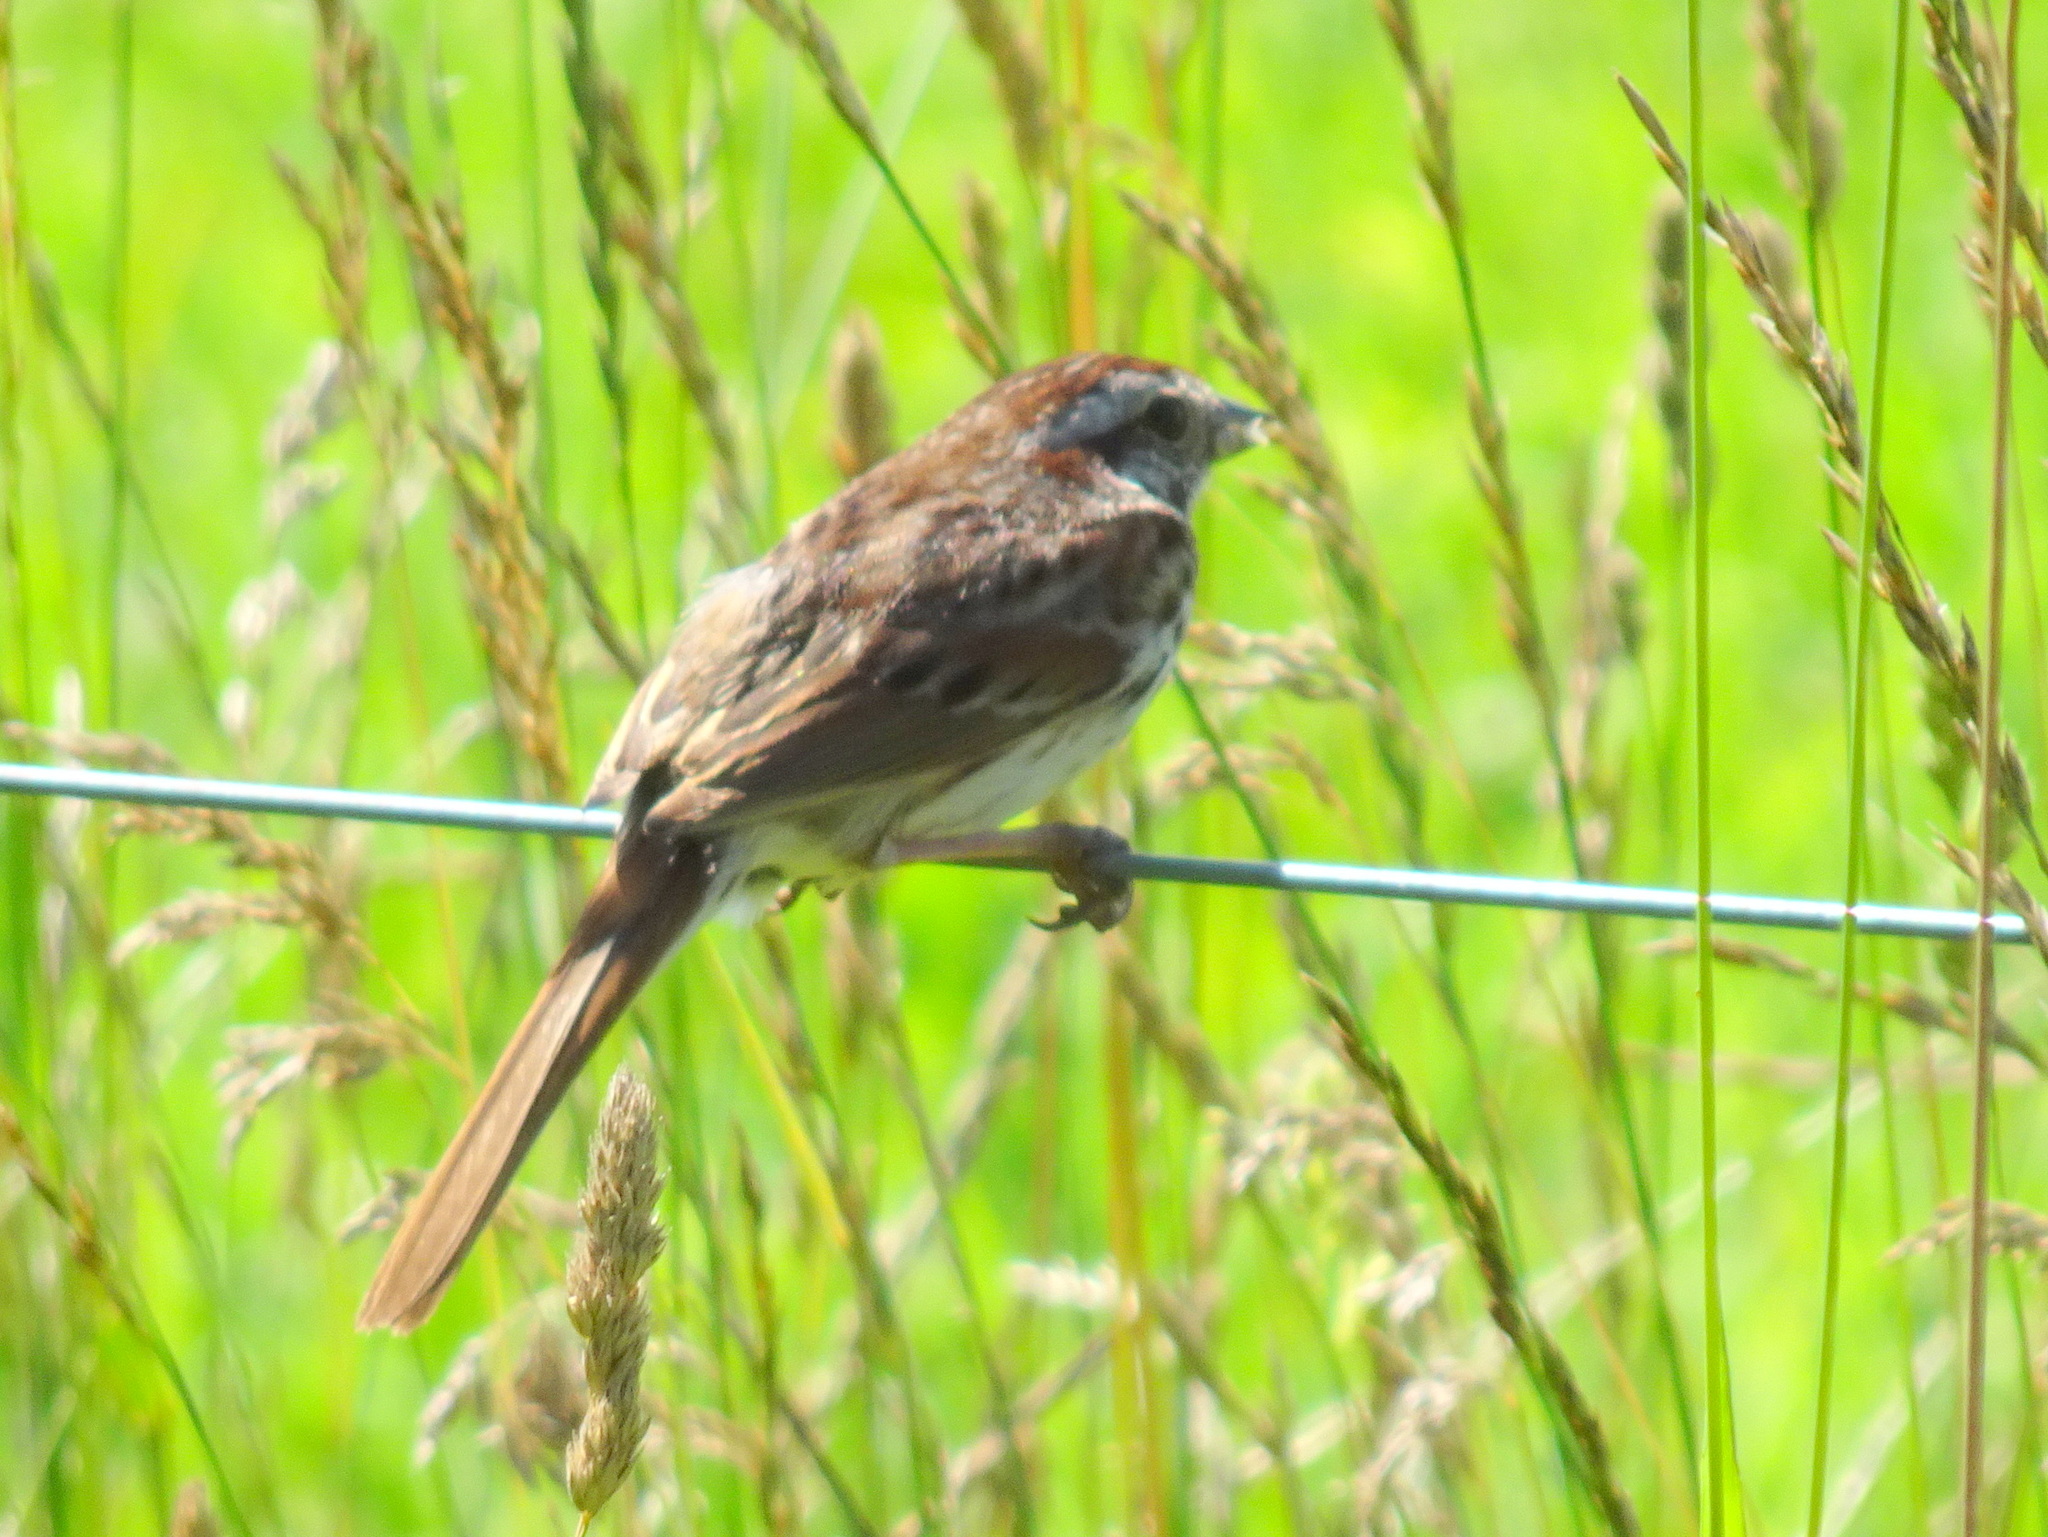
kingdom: Animalia
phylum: Chordata
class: Aves
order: Passeriformes
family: Passerellidae
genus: Melospiza
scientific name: Melospiza melodia
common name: Song sparrow
